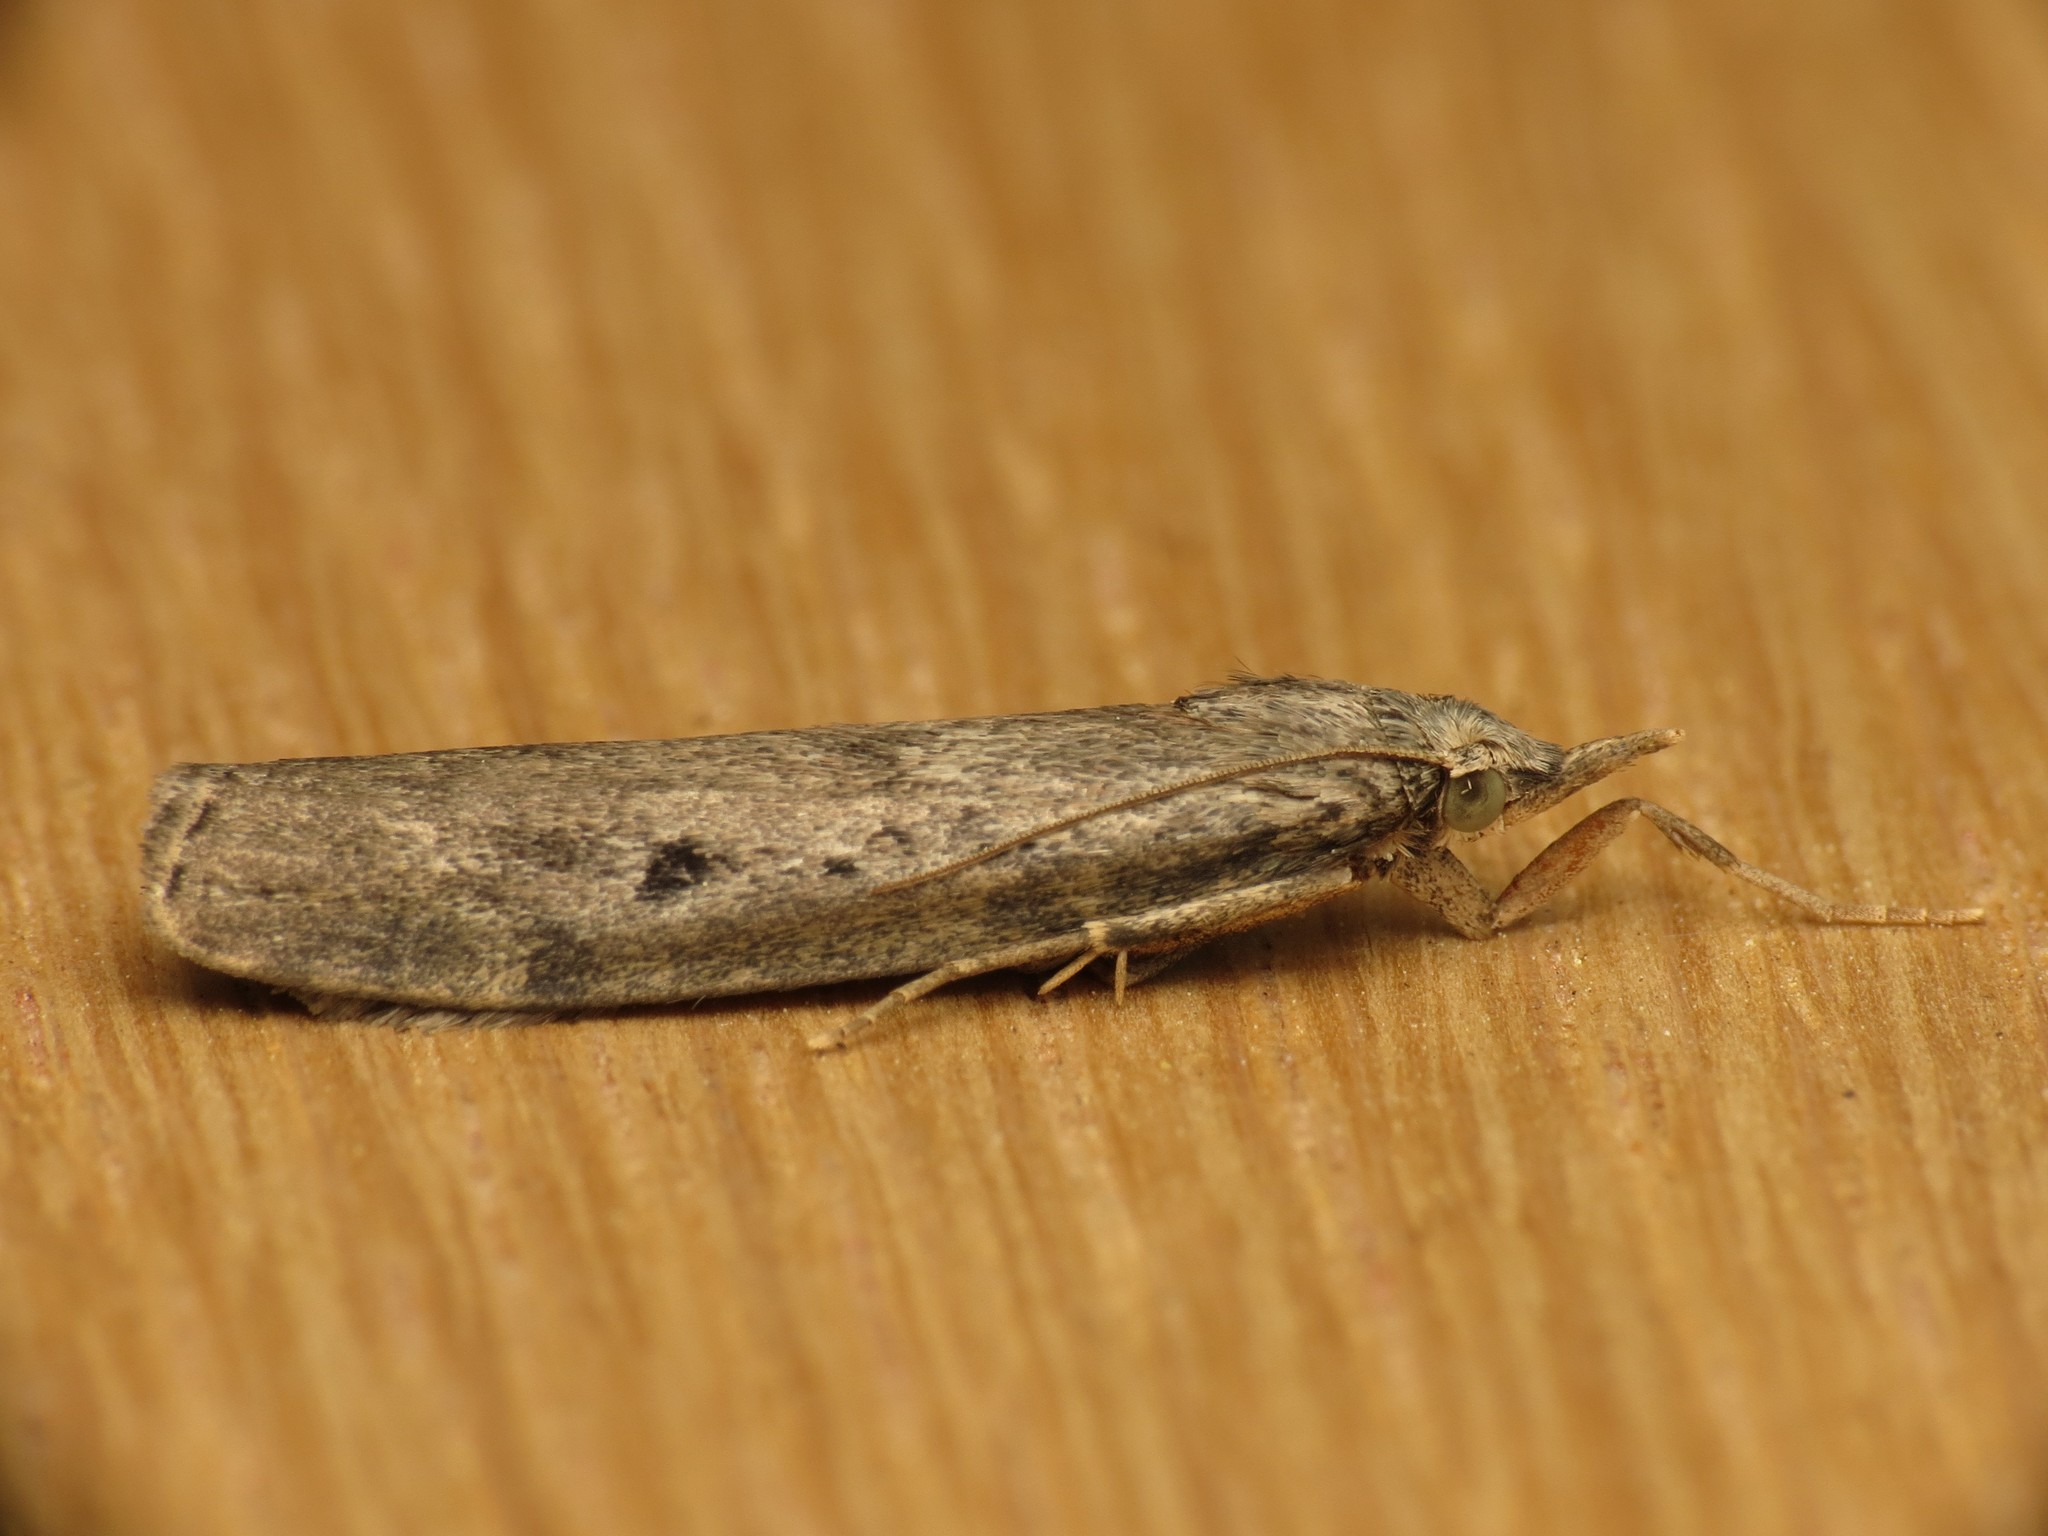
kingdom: Animalia
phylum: Arthropoda
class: Insecta
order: Lepidoptera
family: Pyralidae
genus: Aphomia
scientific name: Aphomia sociella
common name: Bee moth
